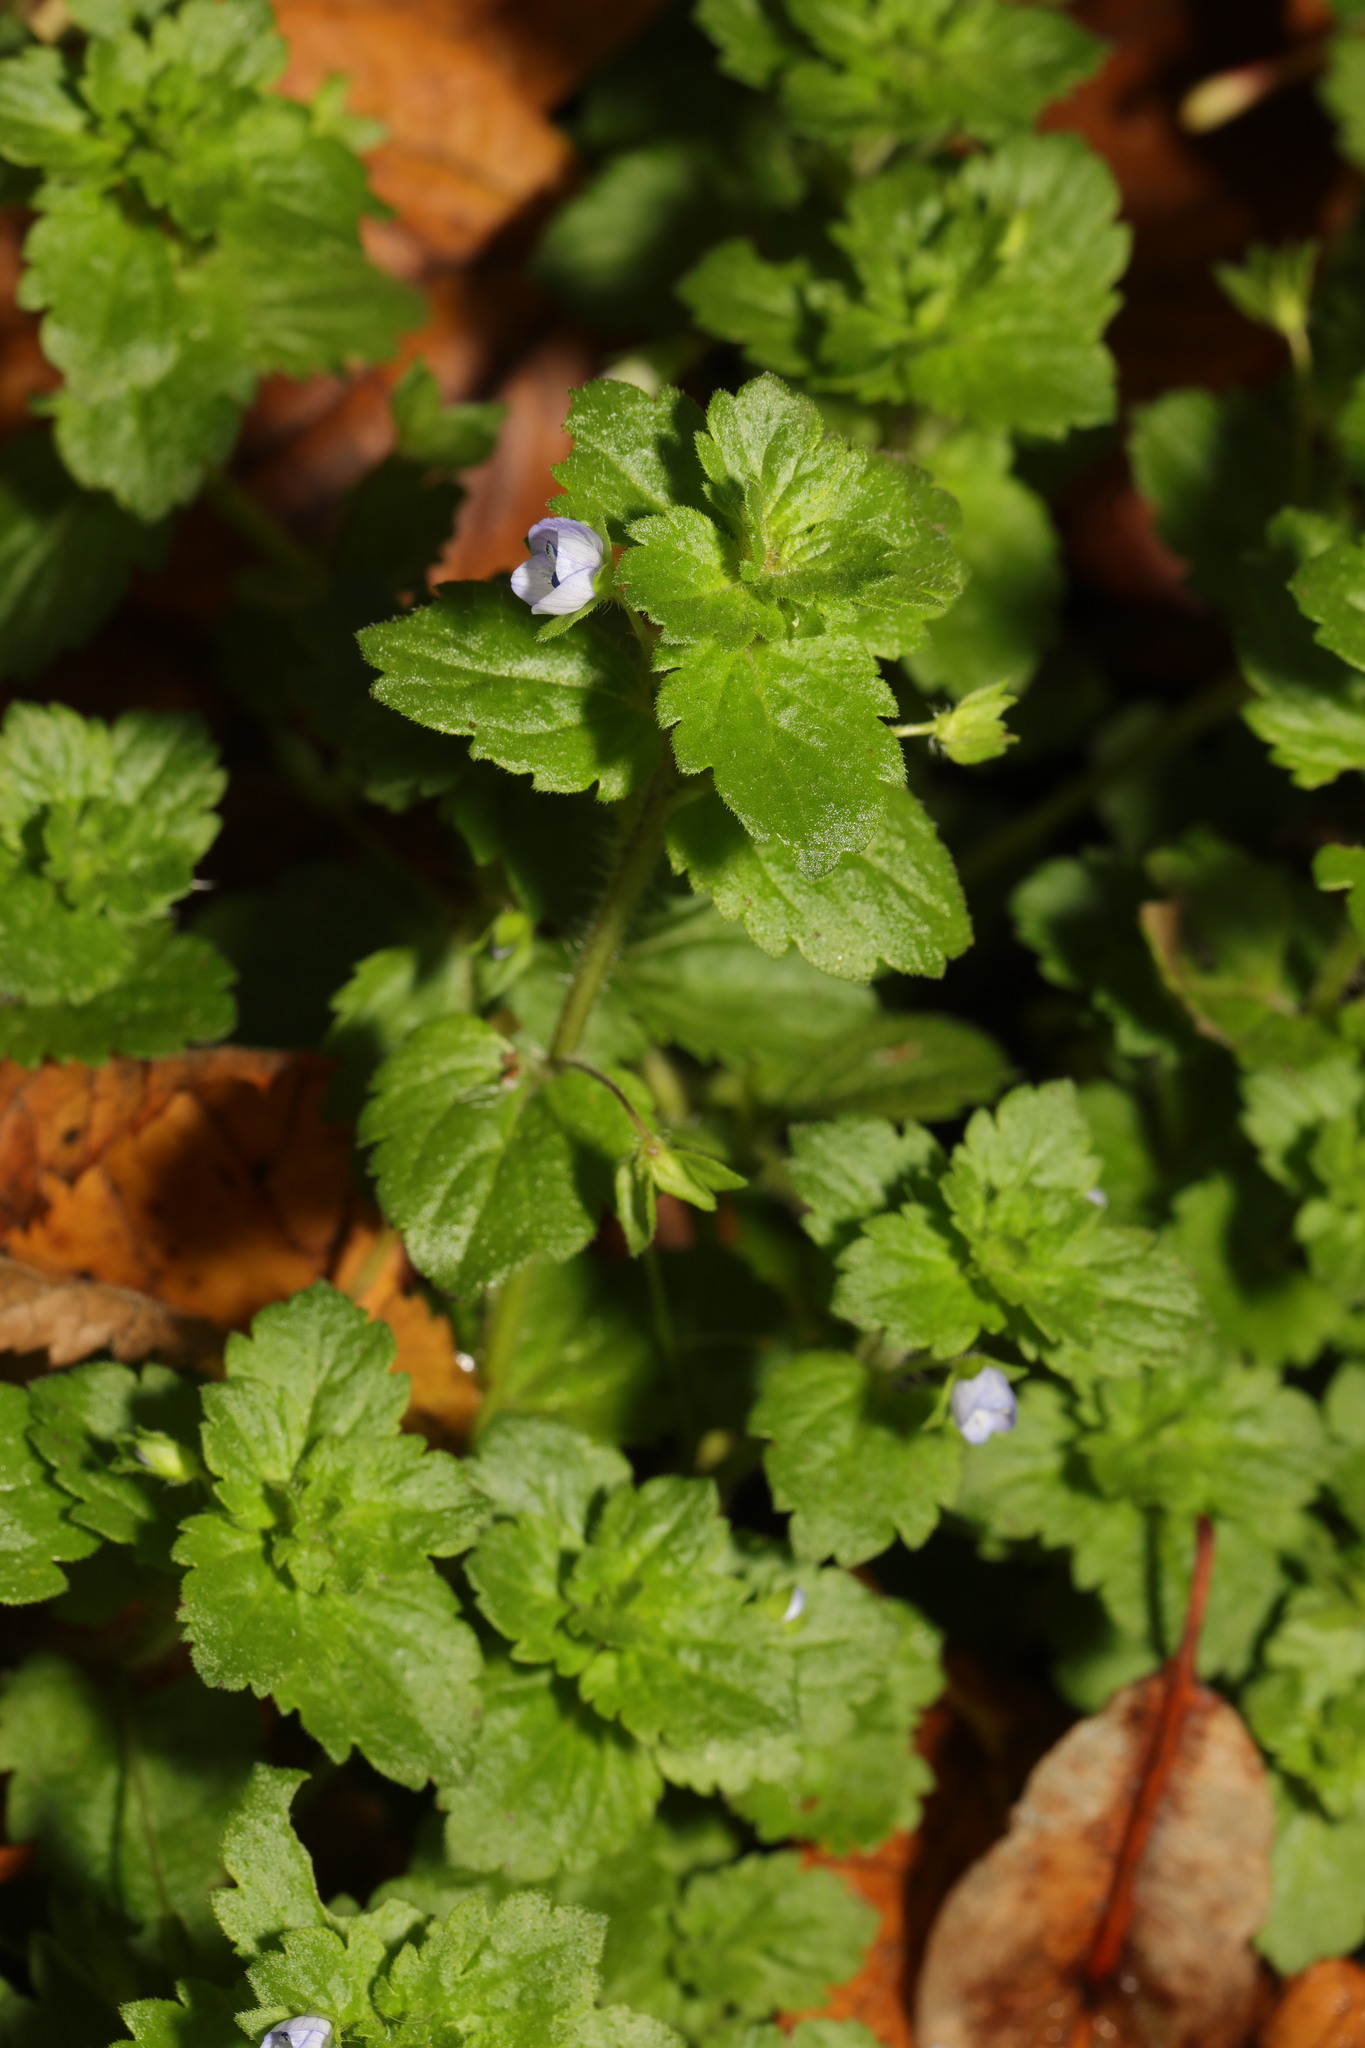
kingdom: Plantae
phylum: Tracheophyta
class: Magnoliopsida
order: Lamiales
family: Plantaginaceae
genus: Veronica
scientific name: Veronica persica
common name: Common field-speedwell
